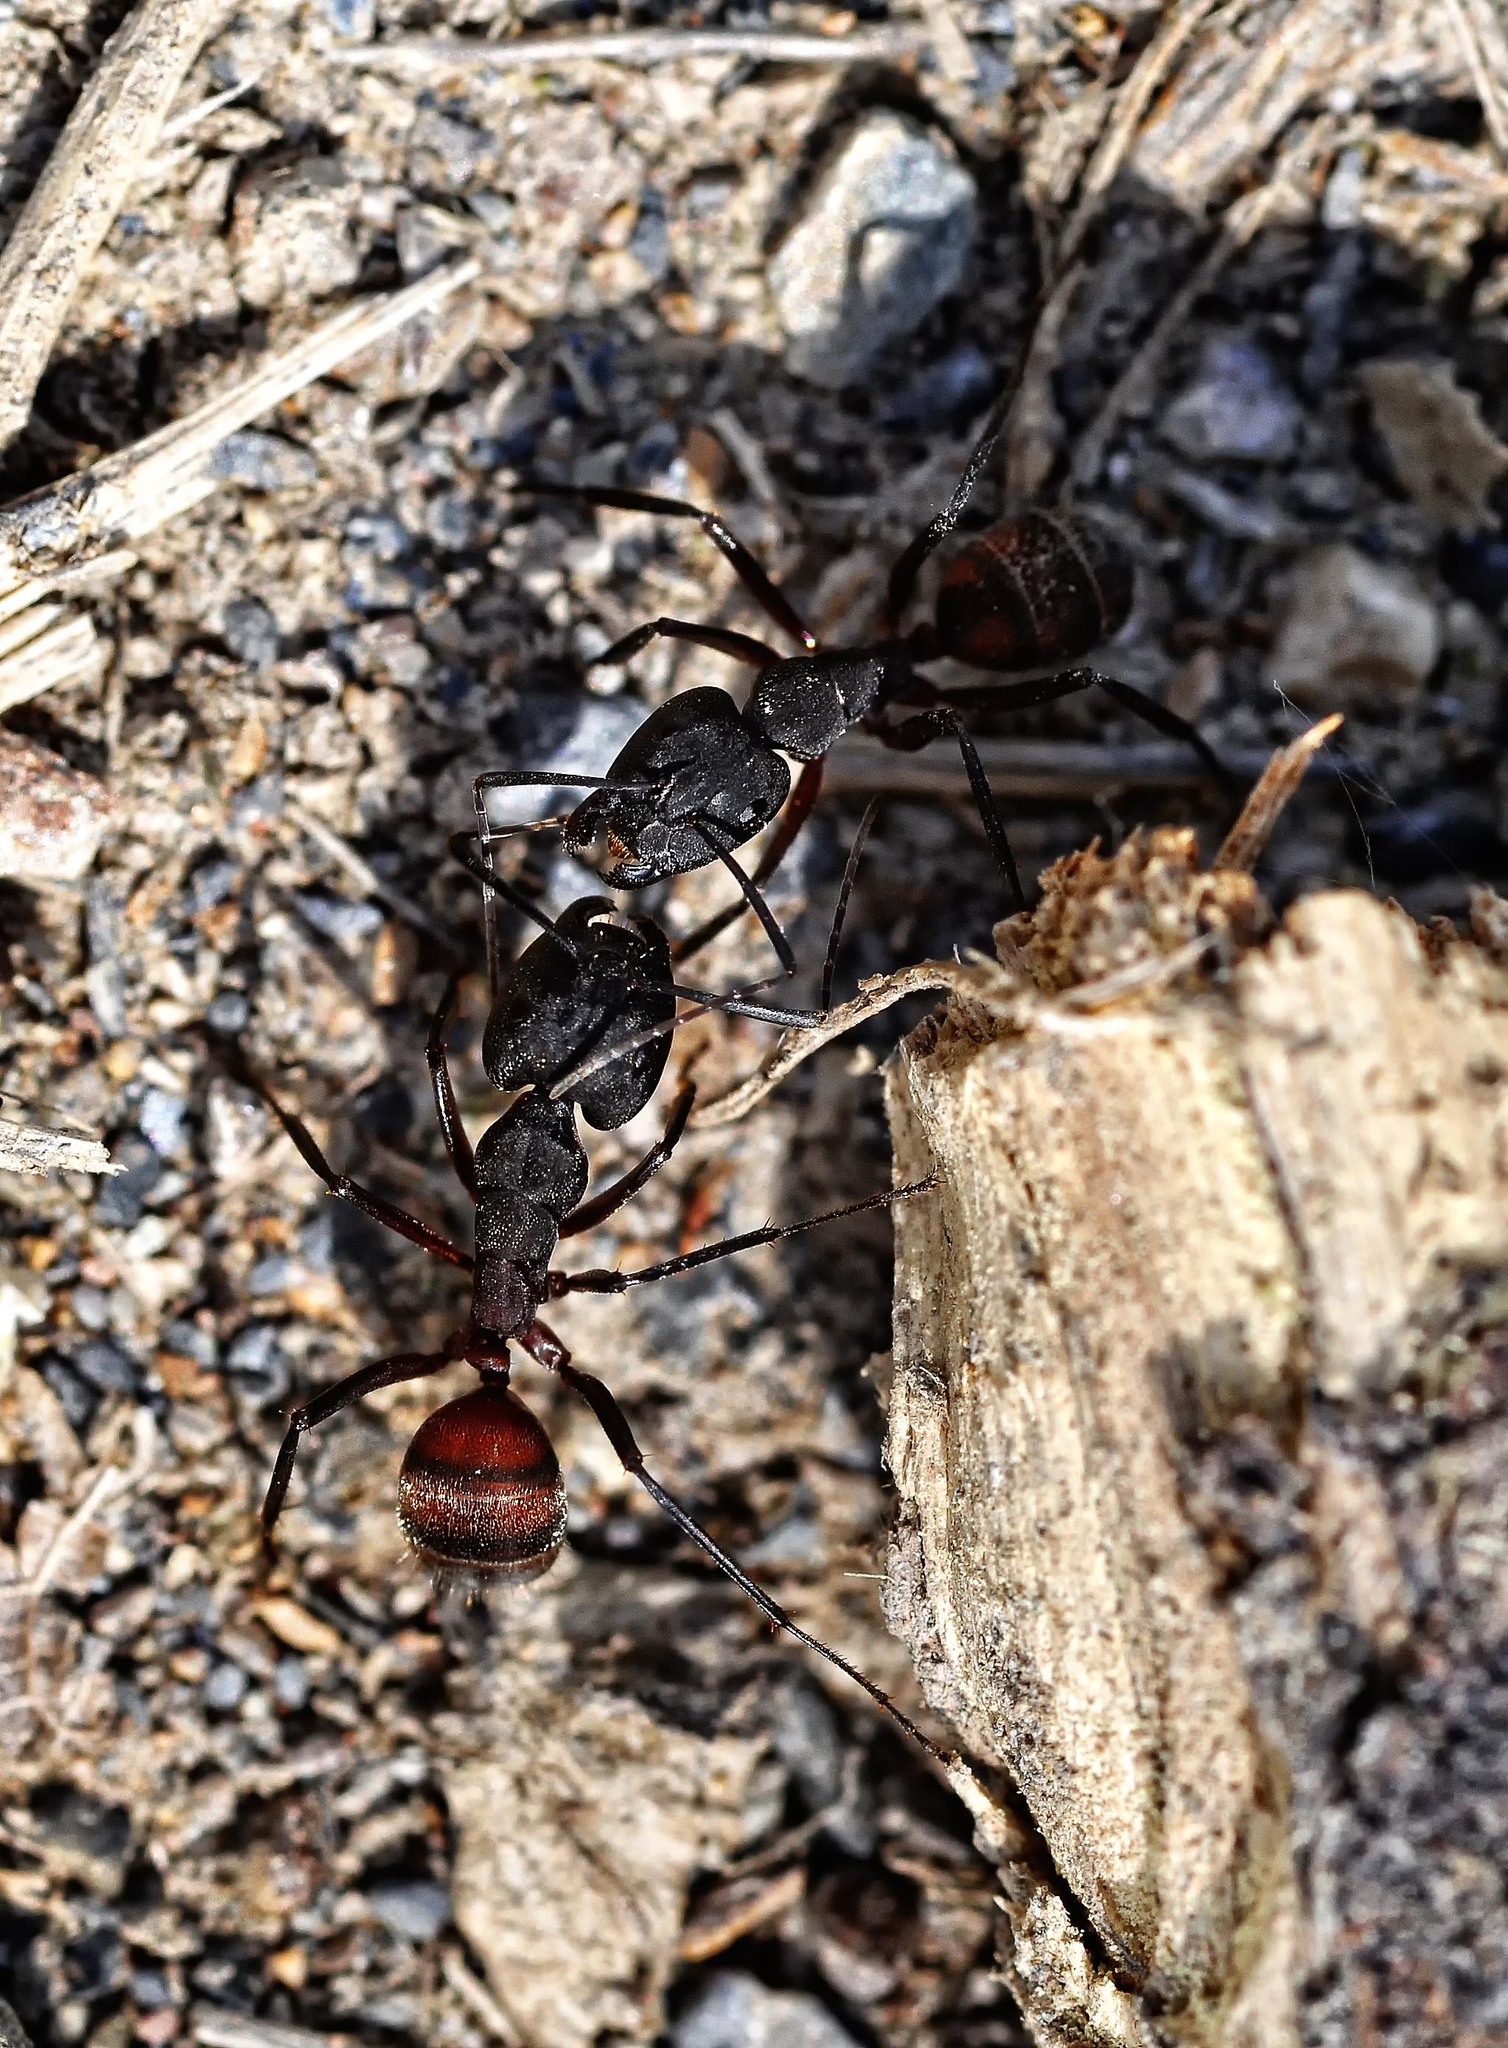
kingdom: Animalia
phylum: Arthropoda
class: Insecta
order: Hymenoptera
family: Formicidae
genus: Camponotus
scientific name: Camponotus cruentatus
